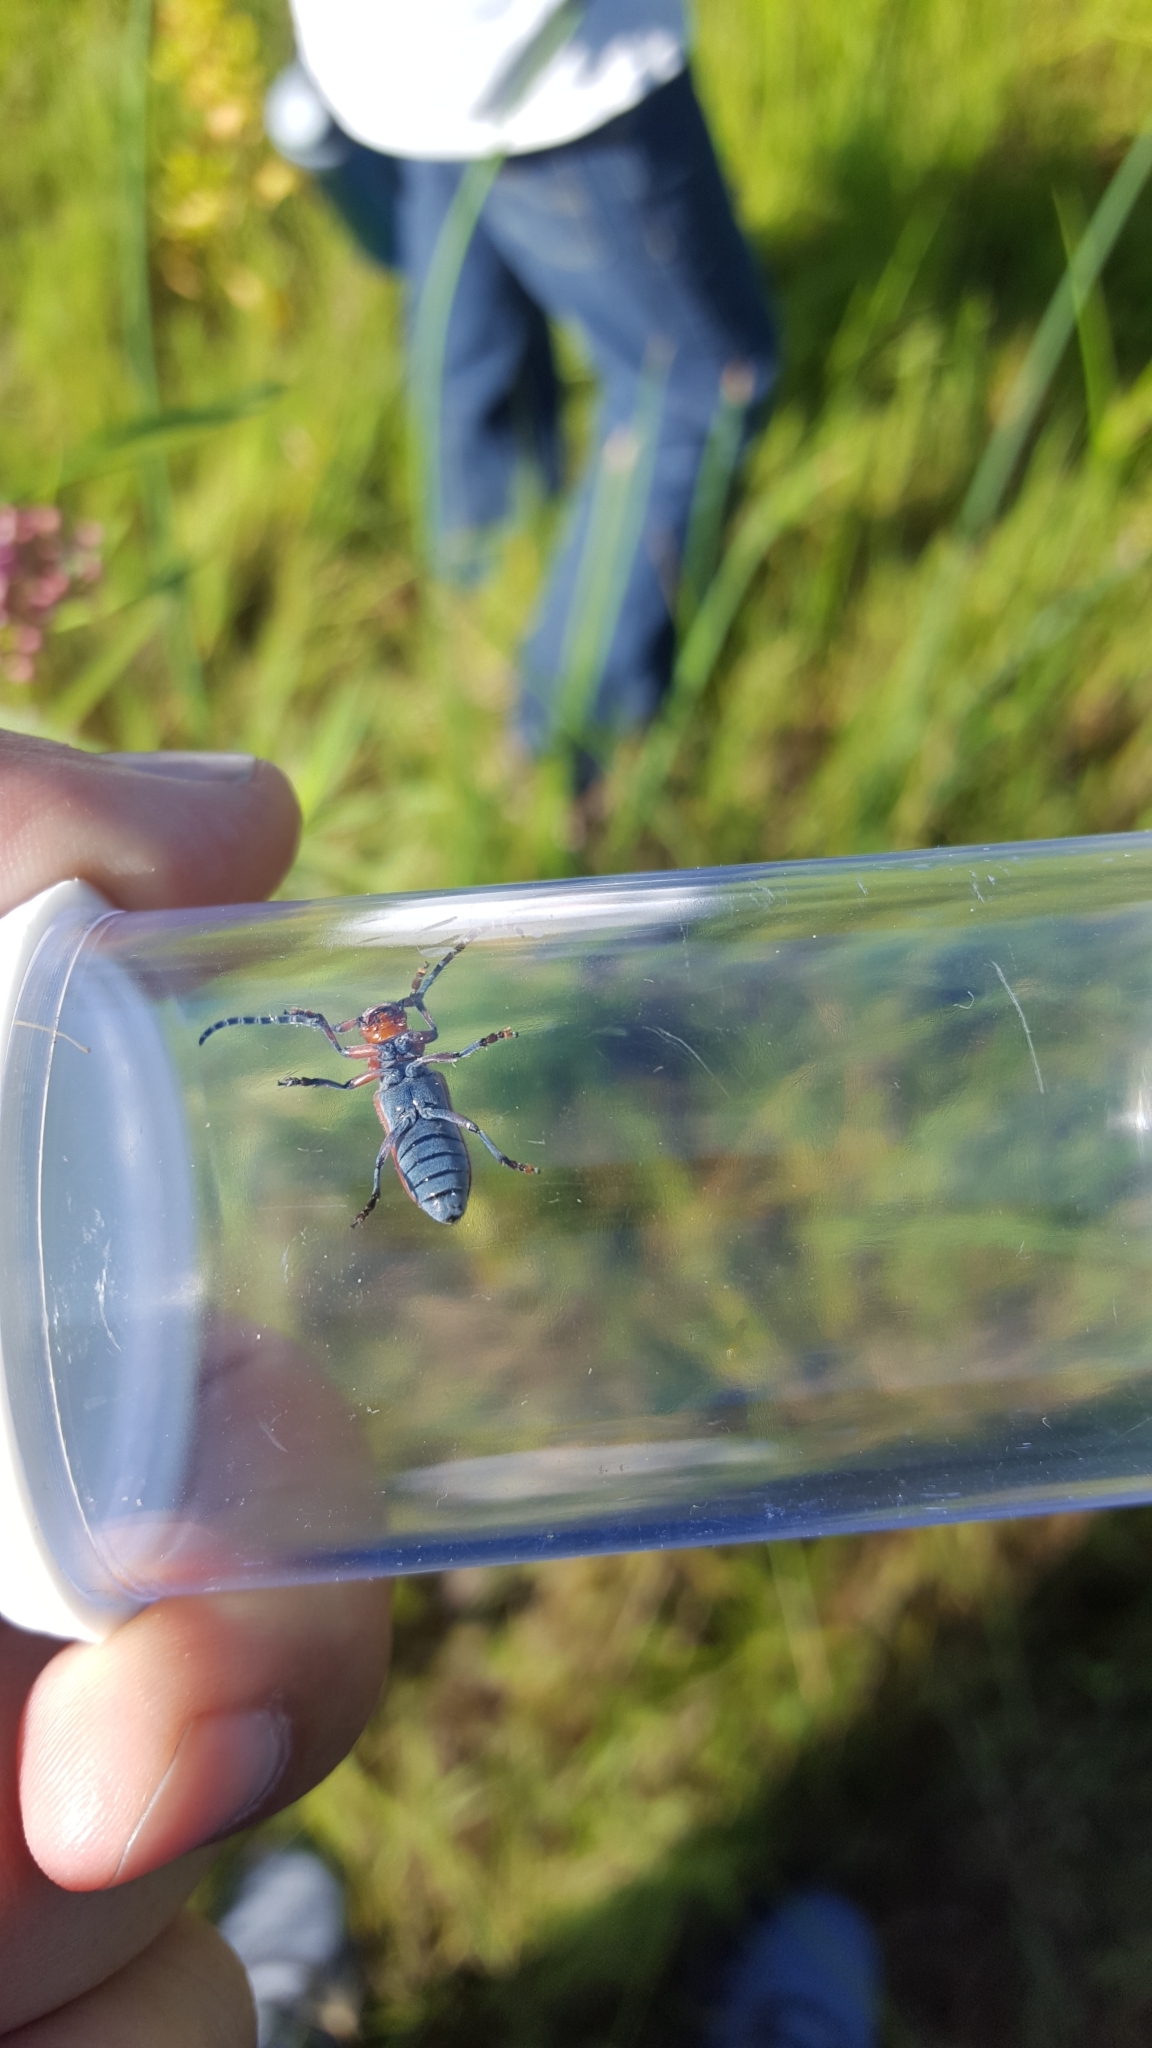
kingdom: Animalia
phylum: Arthropoda
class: Insecta
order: Coleoptera
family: Cerambycidae
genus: Tetraopes
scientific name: Tetraopes femoratus
